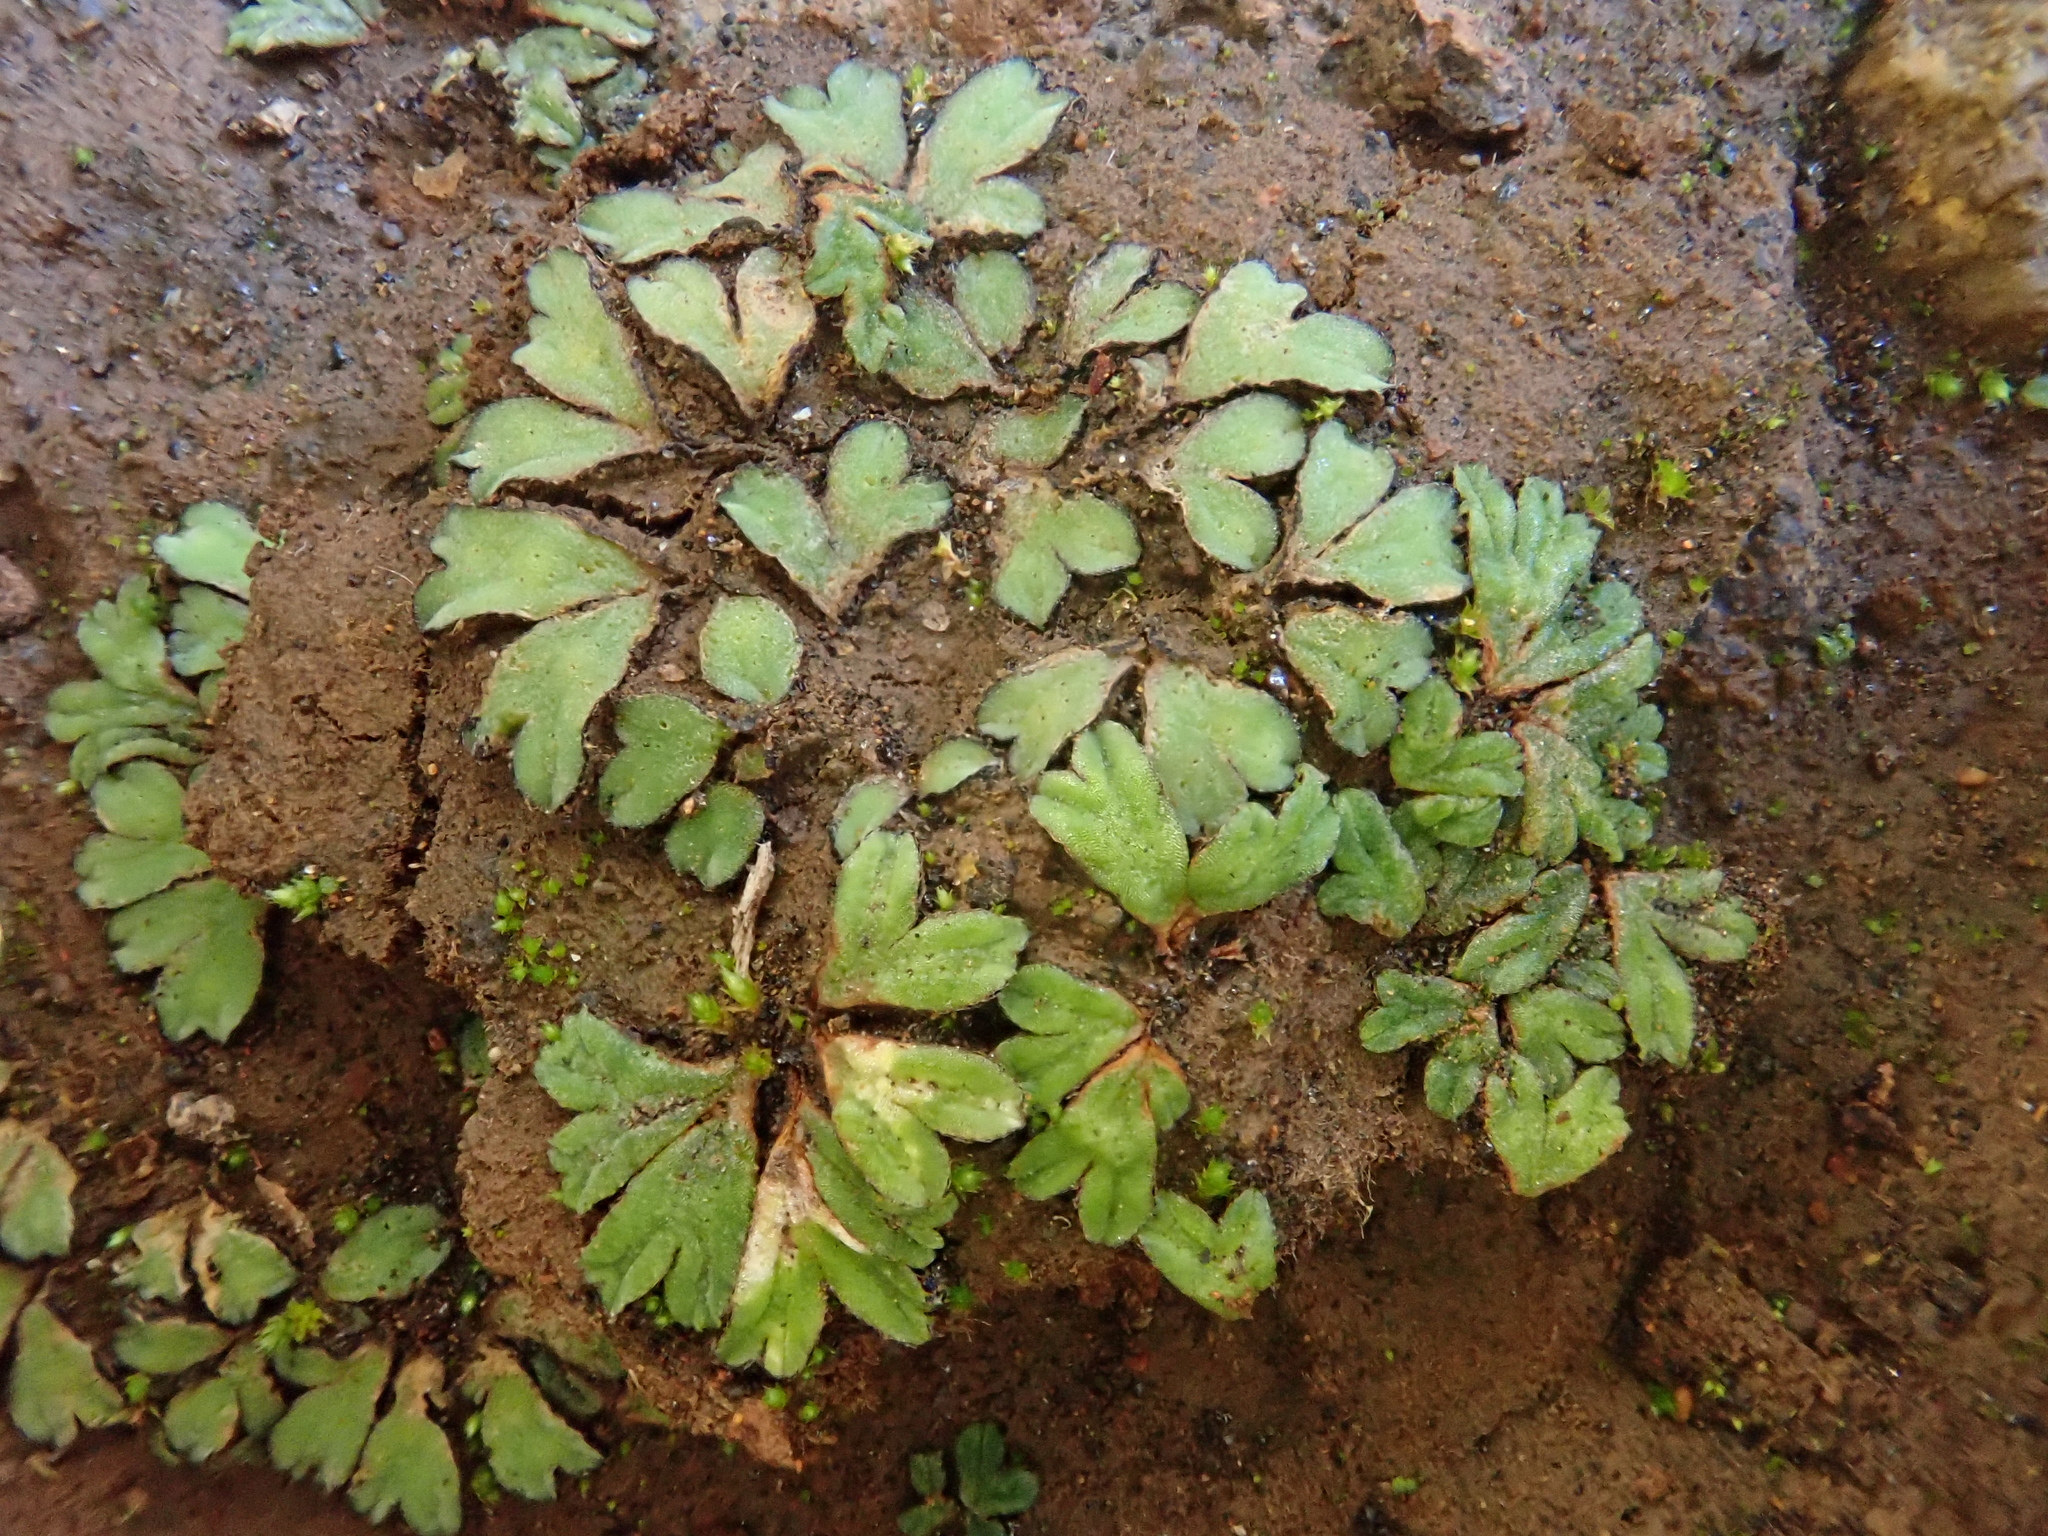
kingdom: Plantae
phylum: Marchantiophyta
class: Marchantiopsida
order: Marchantiales
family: Ricciaceae
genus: Riccia
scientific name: Riccia trabutiana
